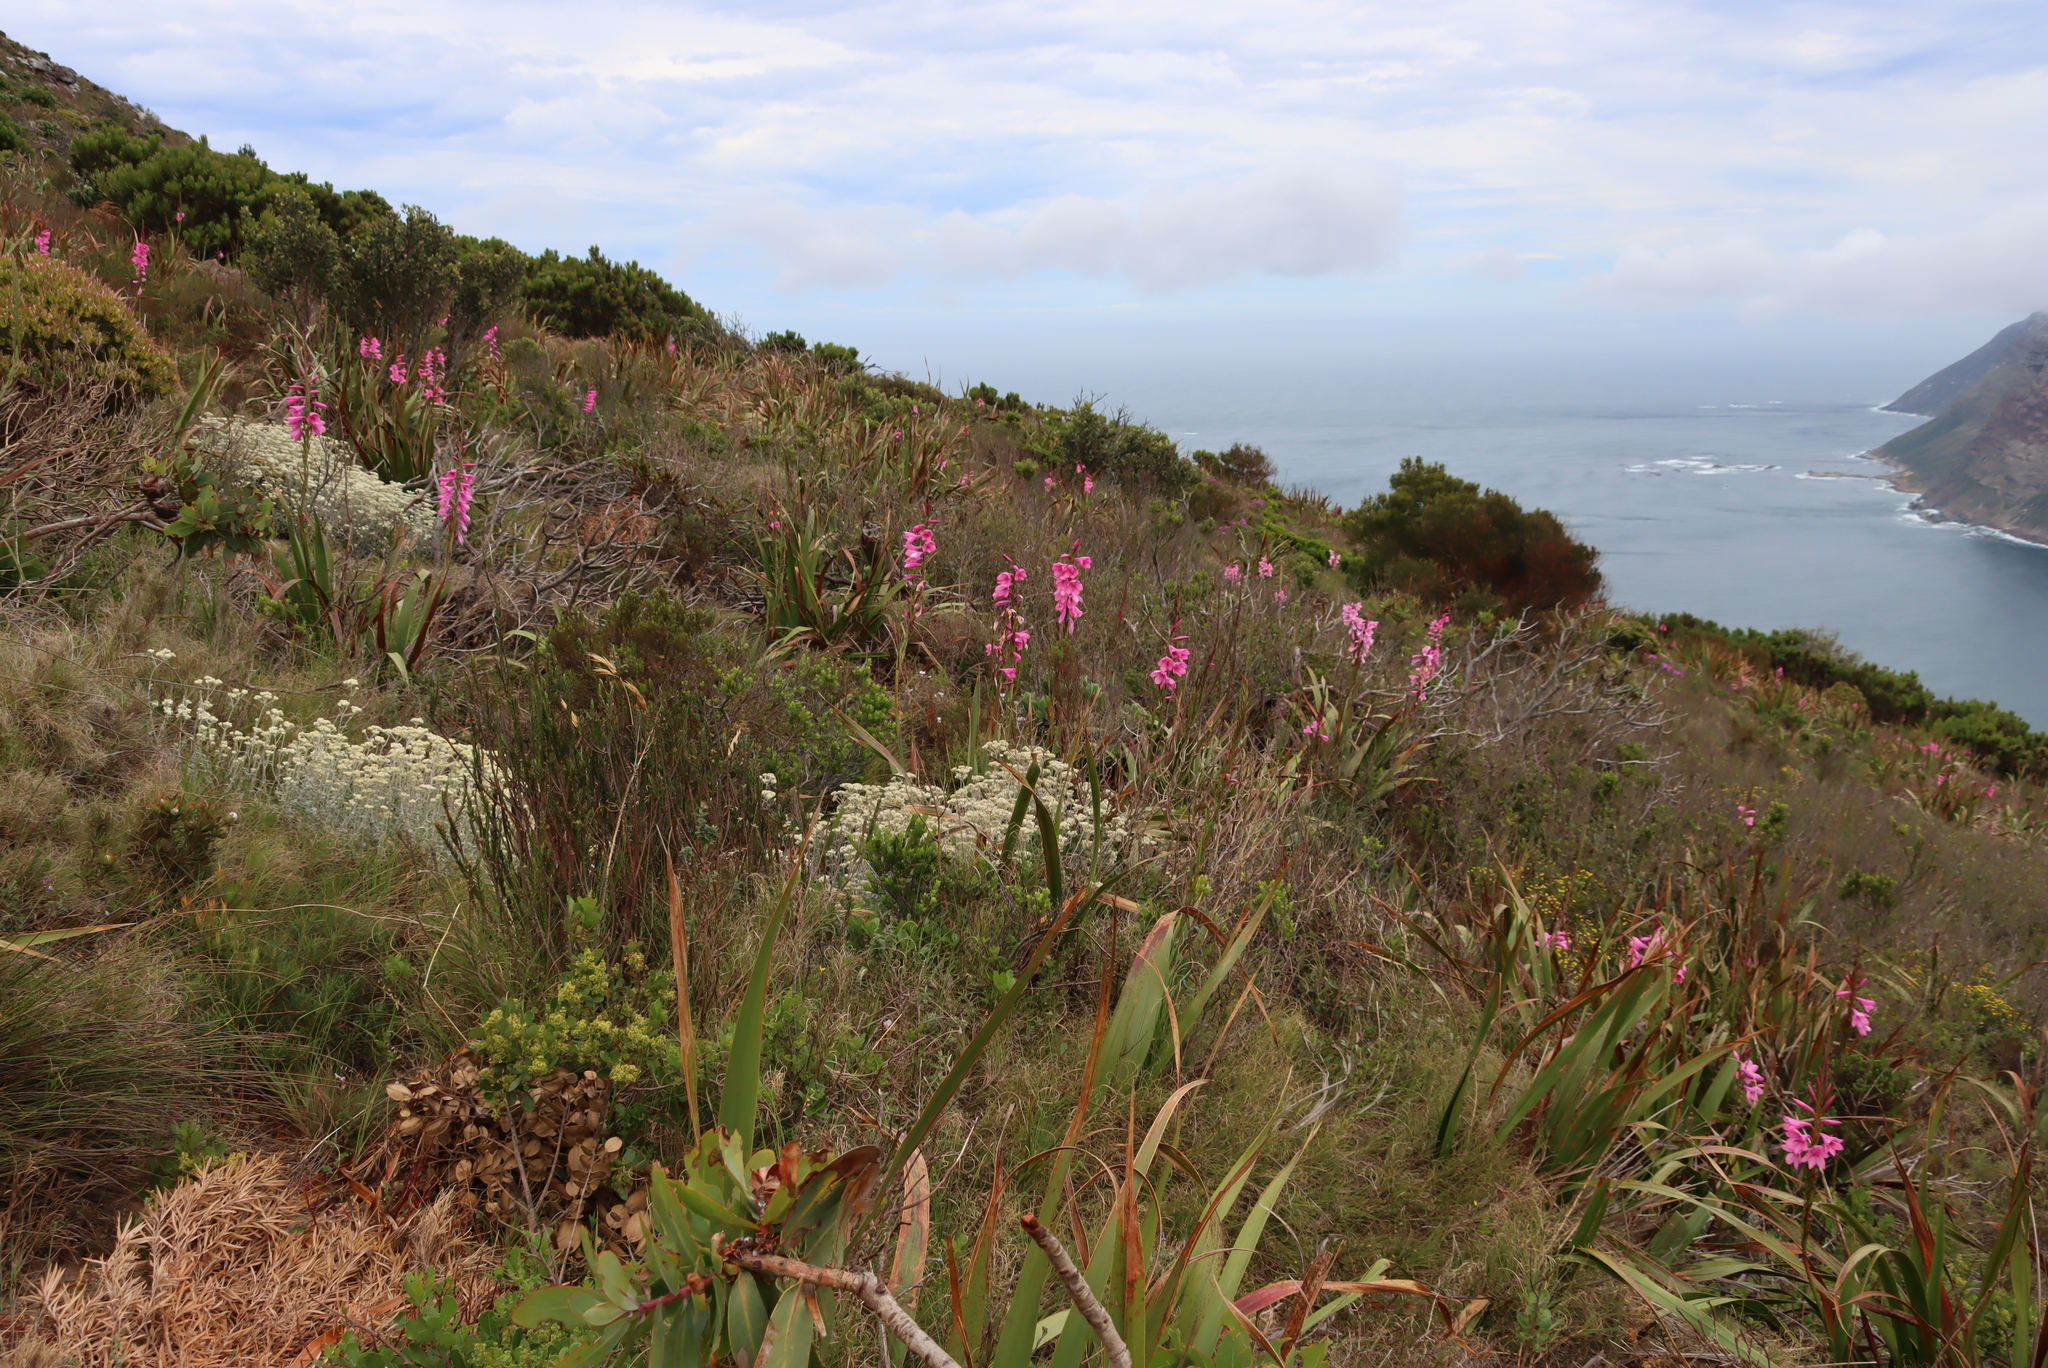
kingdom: Plantae
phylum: Tracheophyta
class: Liliopsida
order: Asparagales
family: Iridaceae
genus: Watsonia
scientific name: Watsonia borbonica
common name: Bugle-lily
